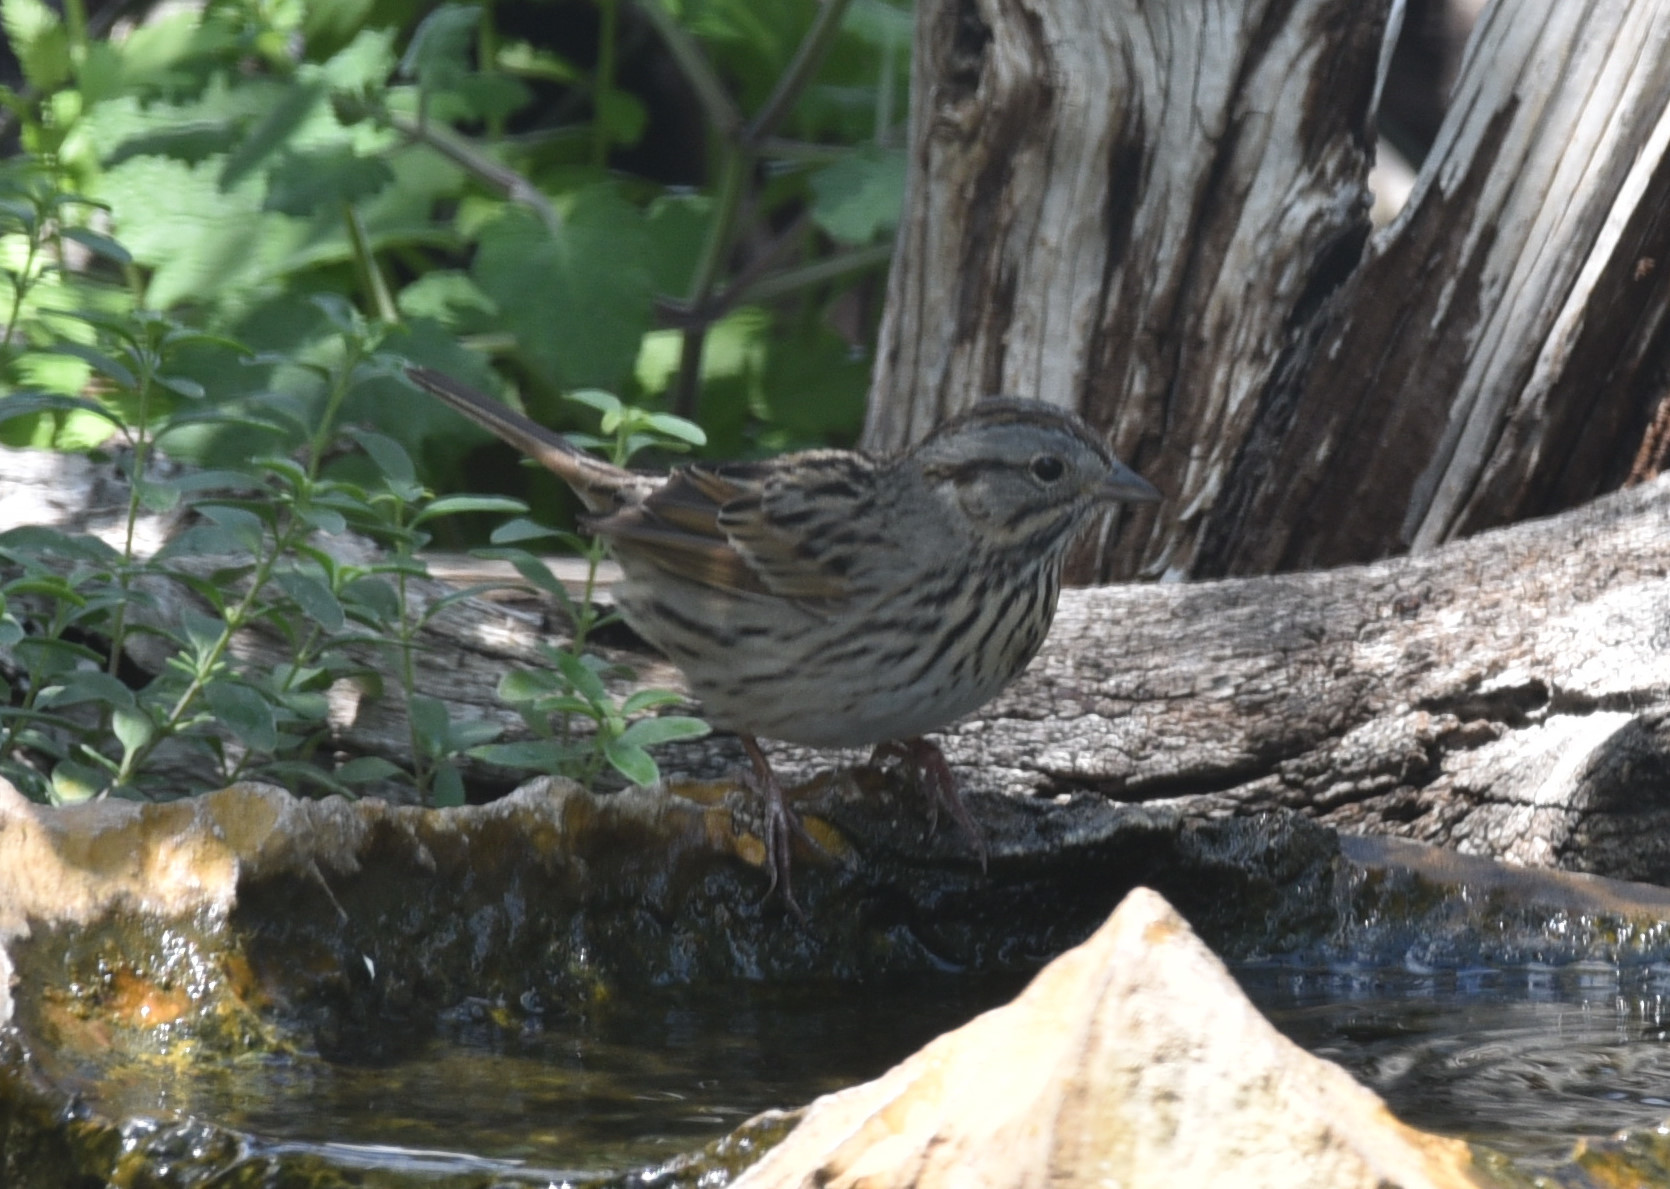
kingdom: Animalia
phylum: Chordata
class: Aves
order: Passeriformes
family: Passerellidae
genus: Melospiza
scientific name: Melospiza lincolnii
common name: Lincoln's sparrow
